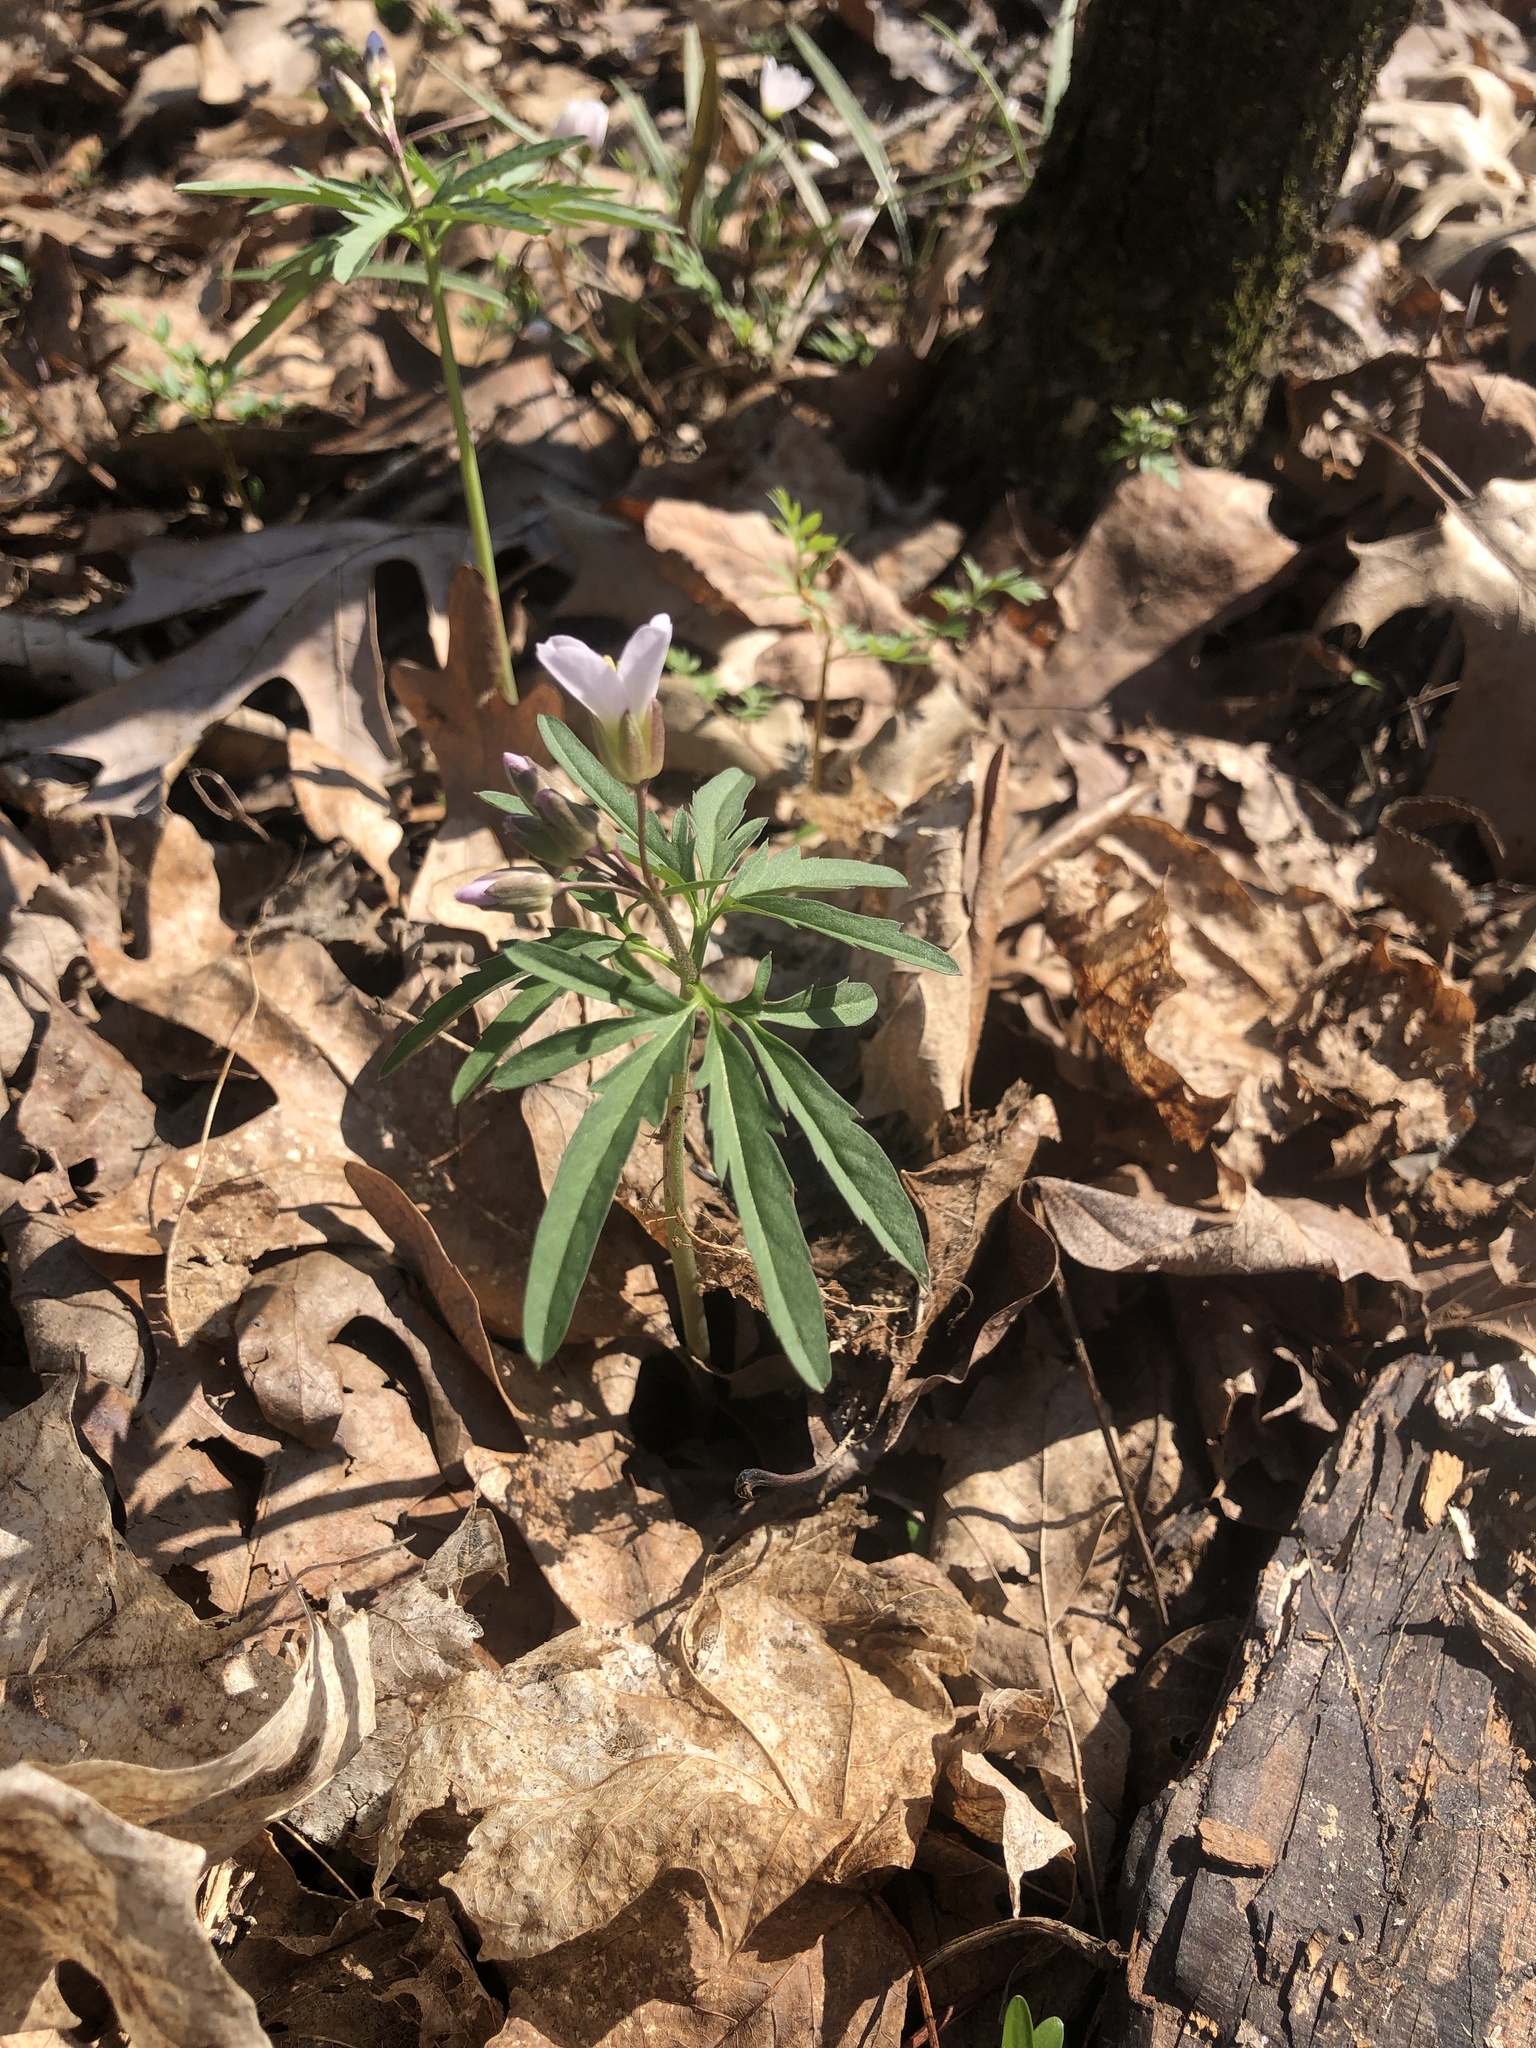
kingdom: Plantae
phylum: Tracheophyta
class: Magnoliopsida
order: Brassicales
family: Brassicaceae
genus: Cardamine
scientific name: Cardamine concatenata
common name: Cut-leaf toothcup
